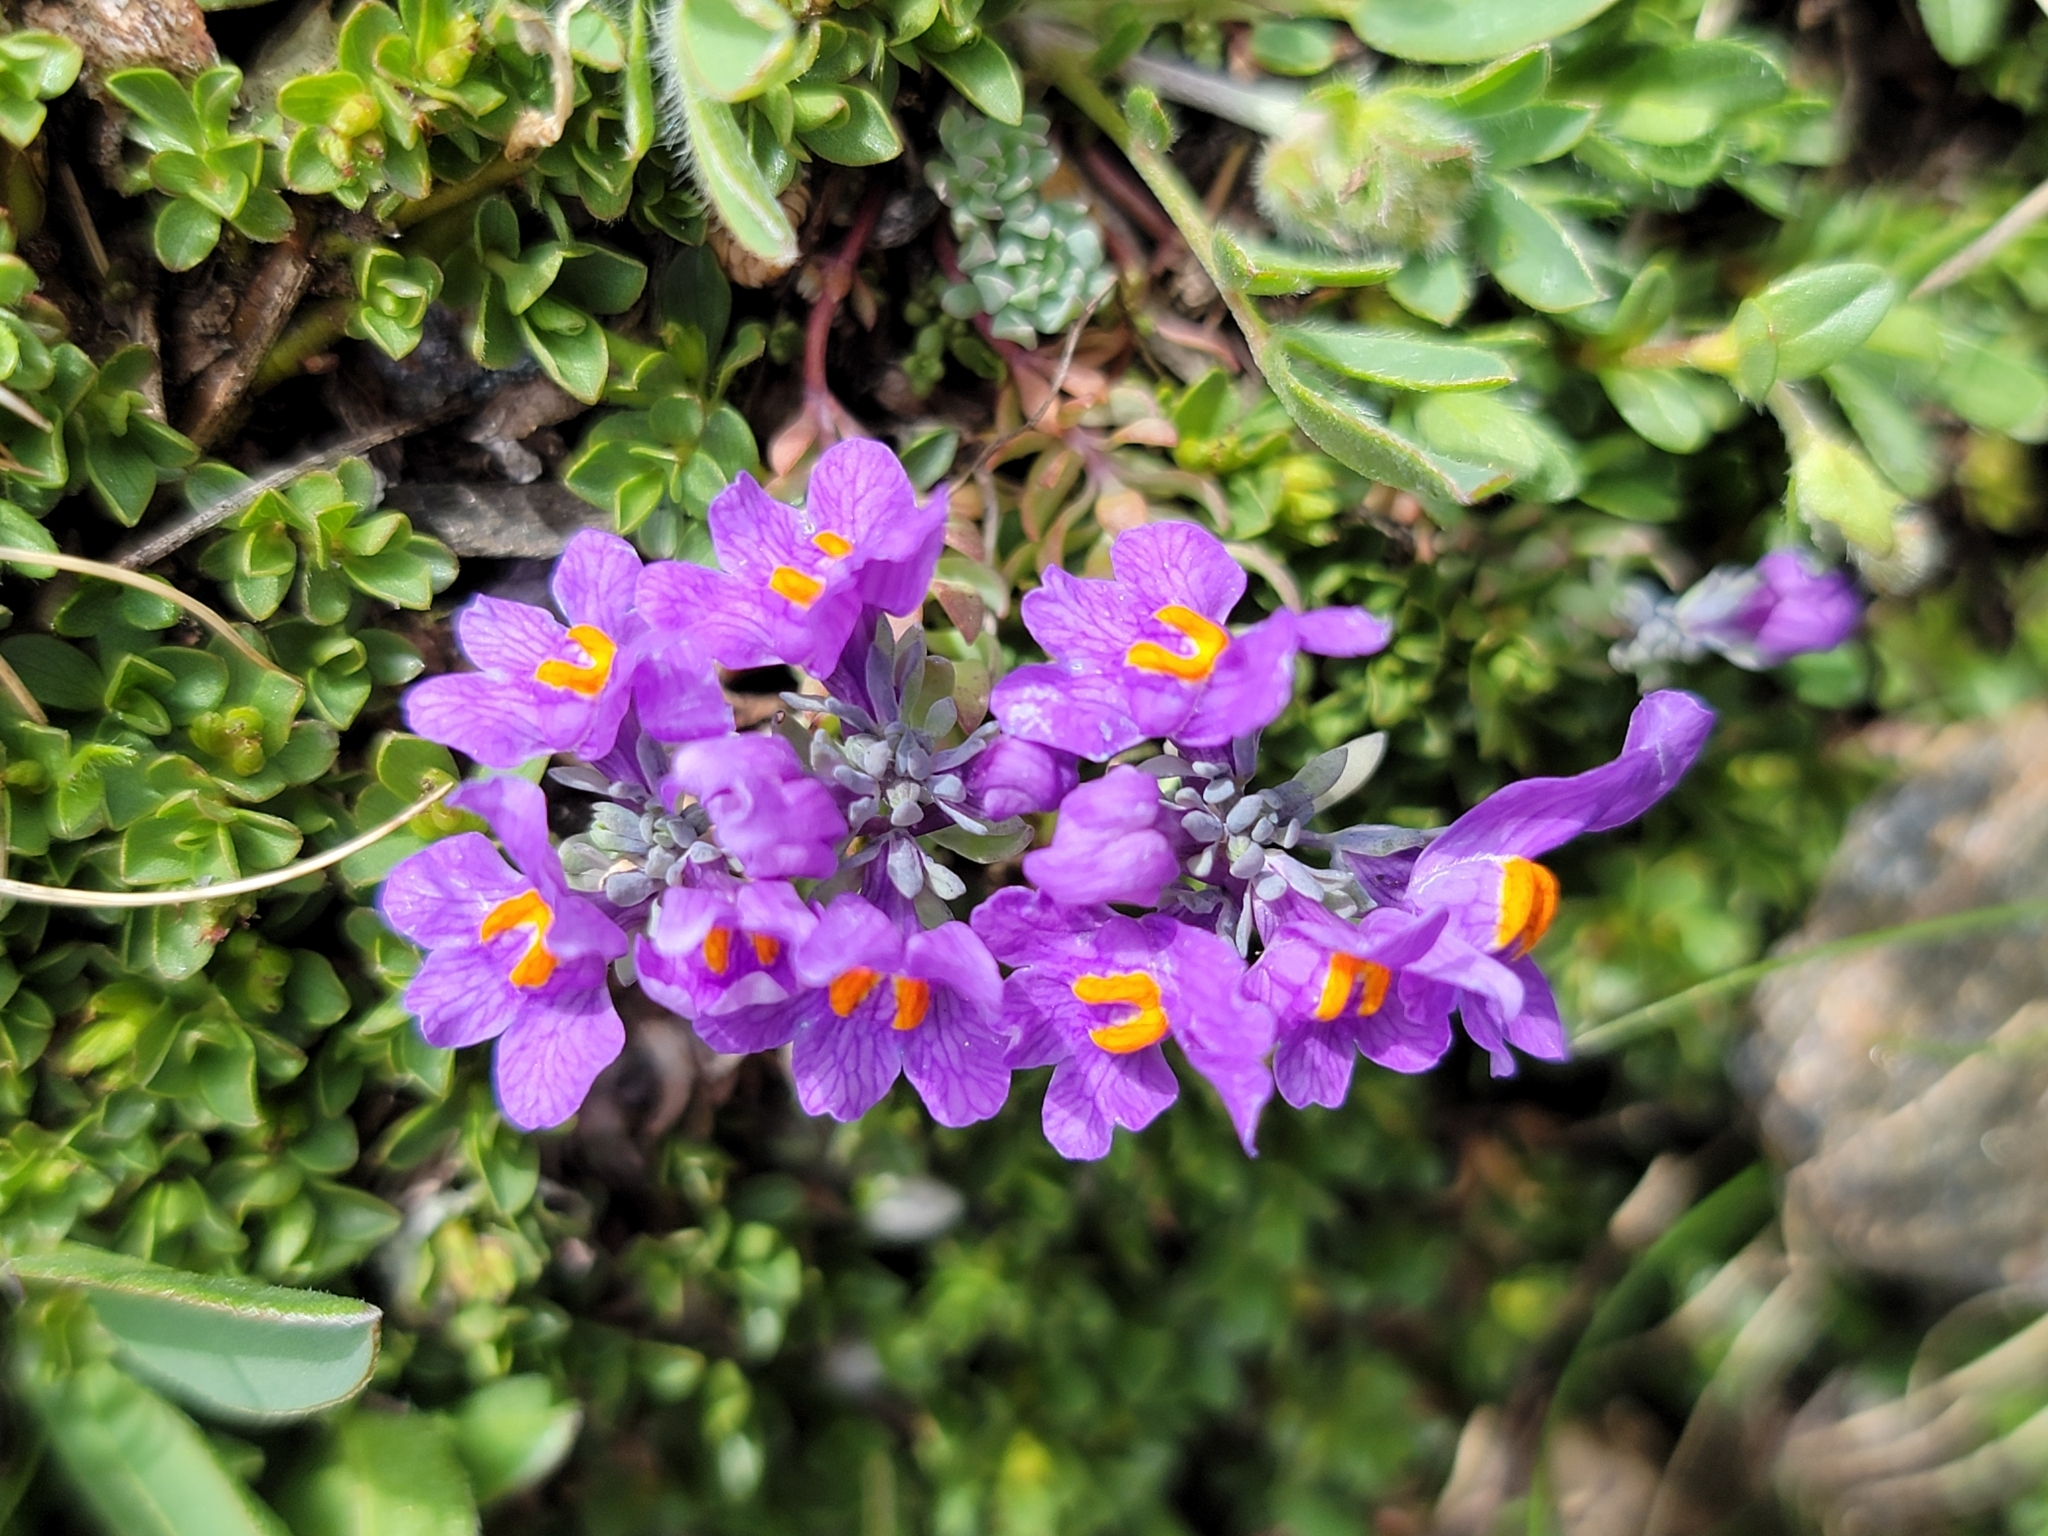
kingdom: Plantae
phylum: Tracheophyta
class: Magnoliopsida
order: Lamiales
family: Plantaginaceae
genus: Linaria
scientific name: Linaria alpina
